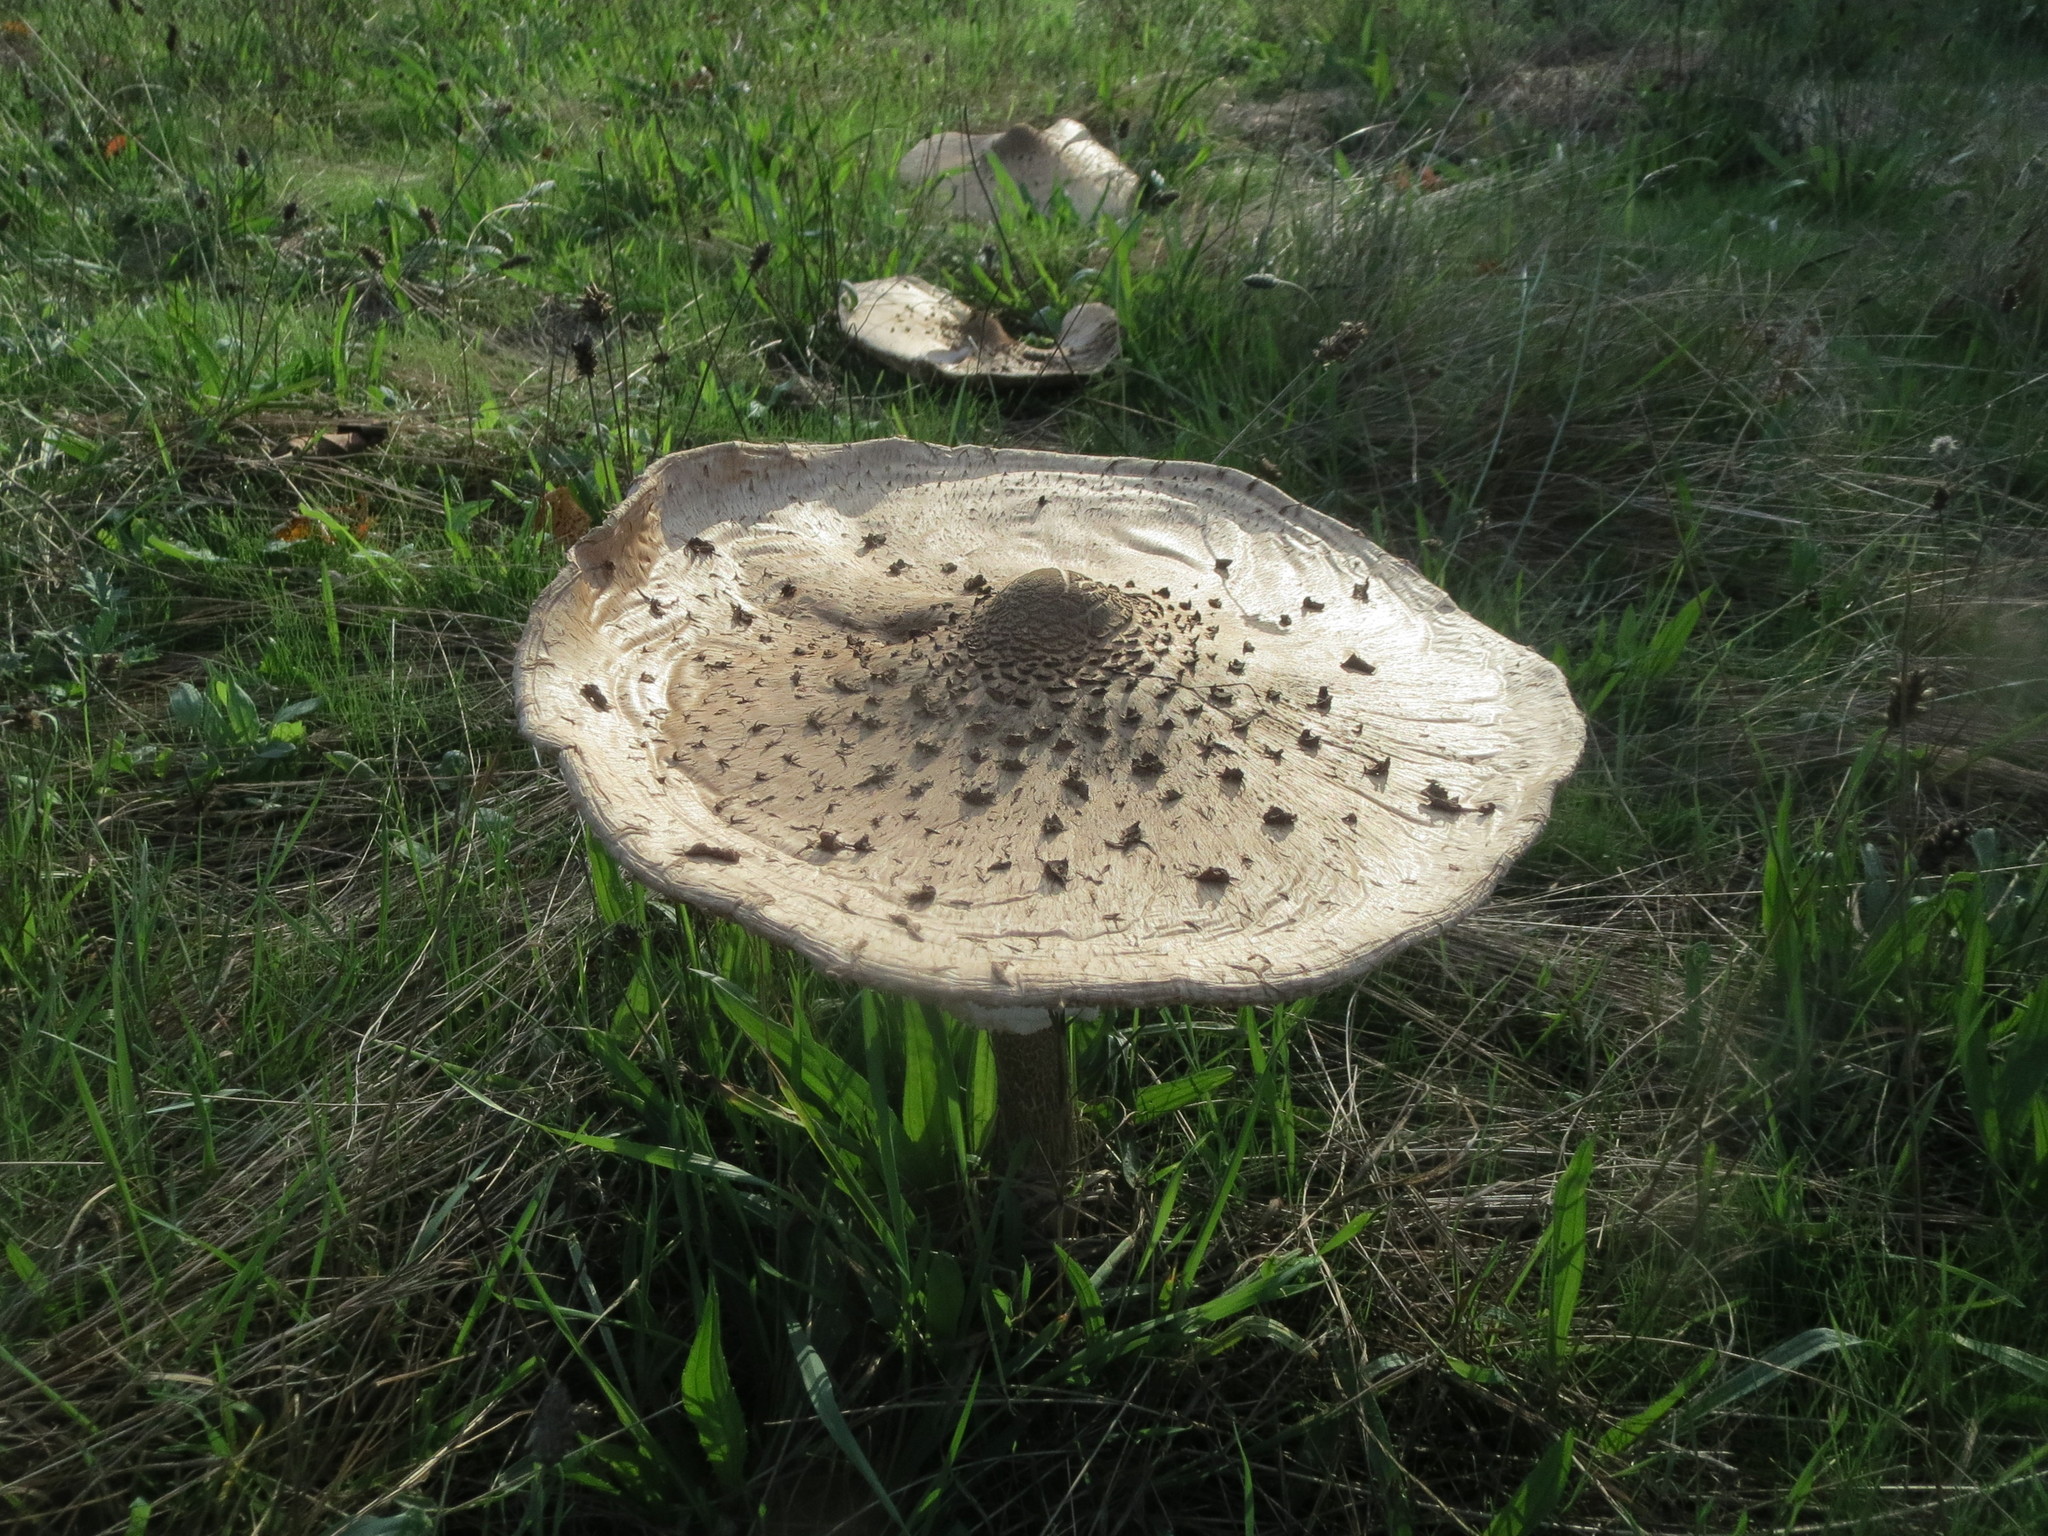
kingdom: Fungi
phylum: Basidiomycota
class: Agaricomycetes
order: Agaricales
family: Agaricaceae
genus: Macrolepiota
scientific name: Macrolepiota procera
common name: Parasol
